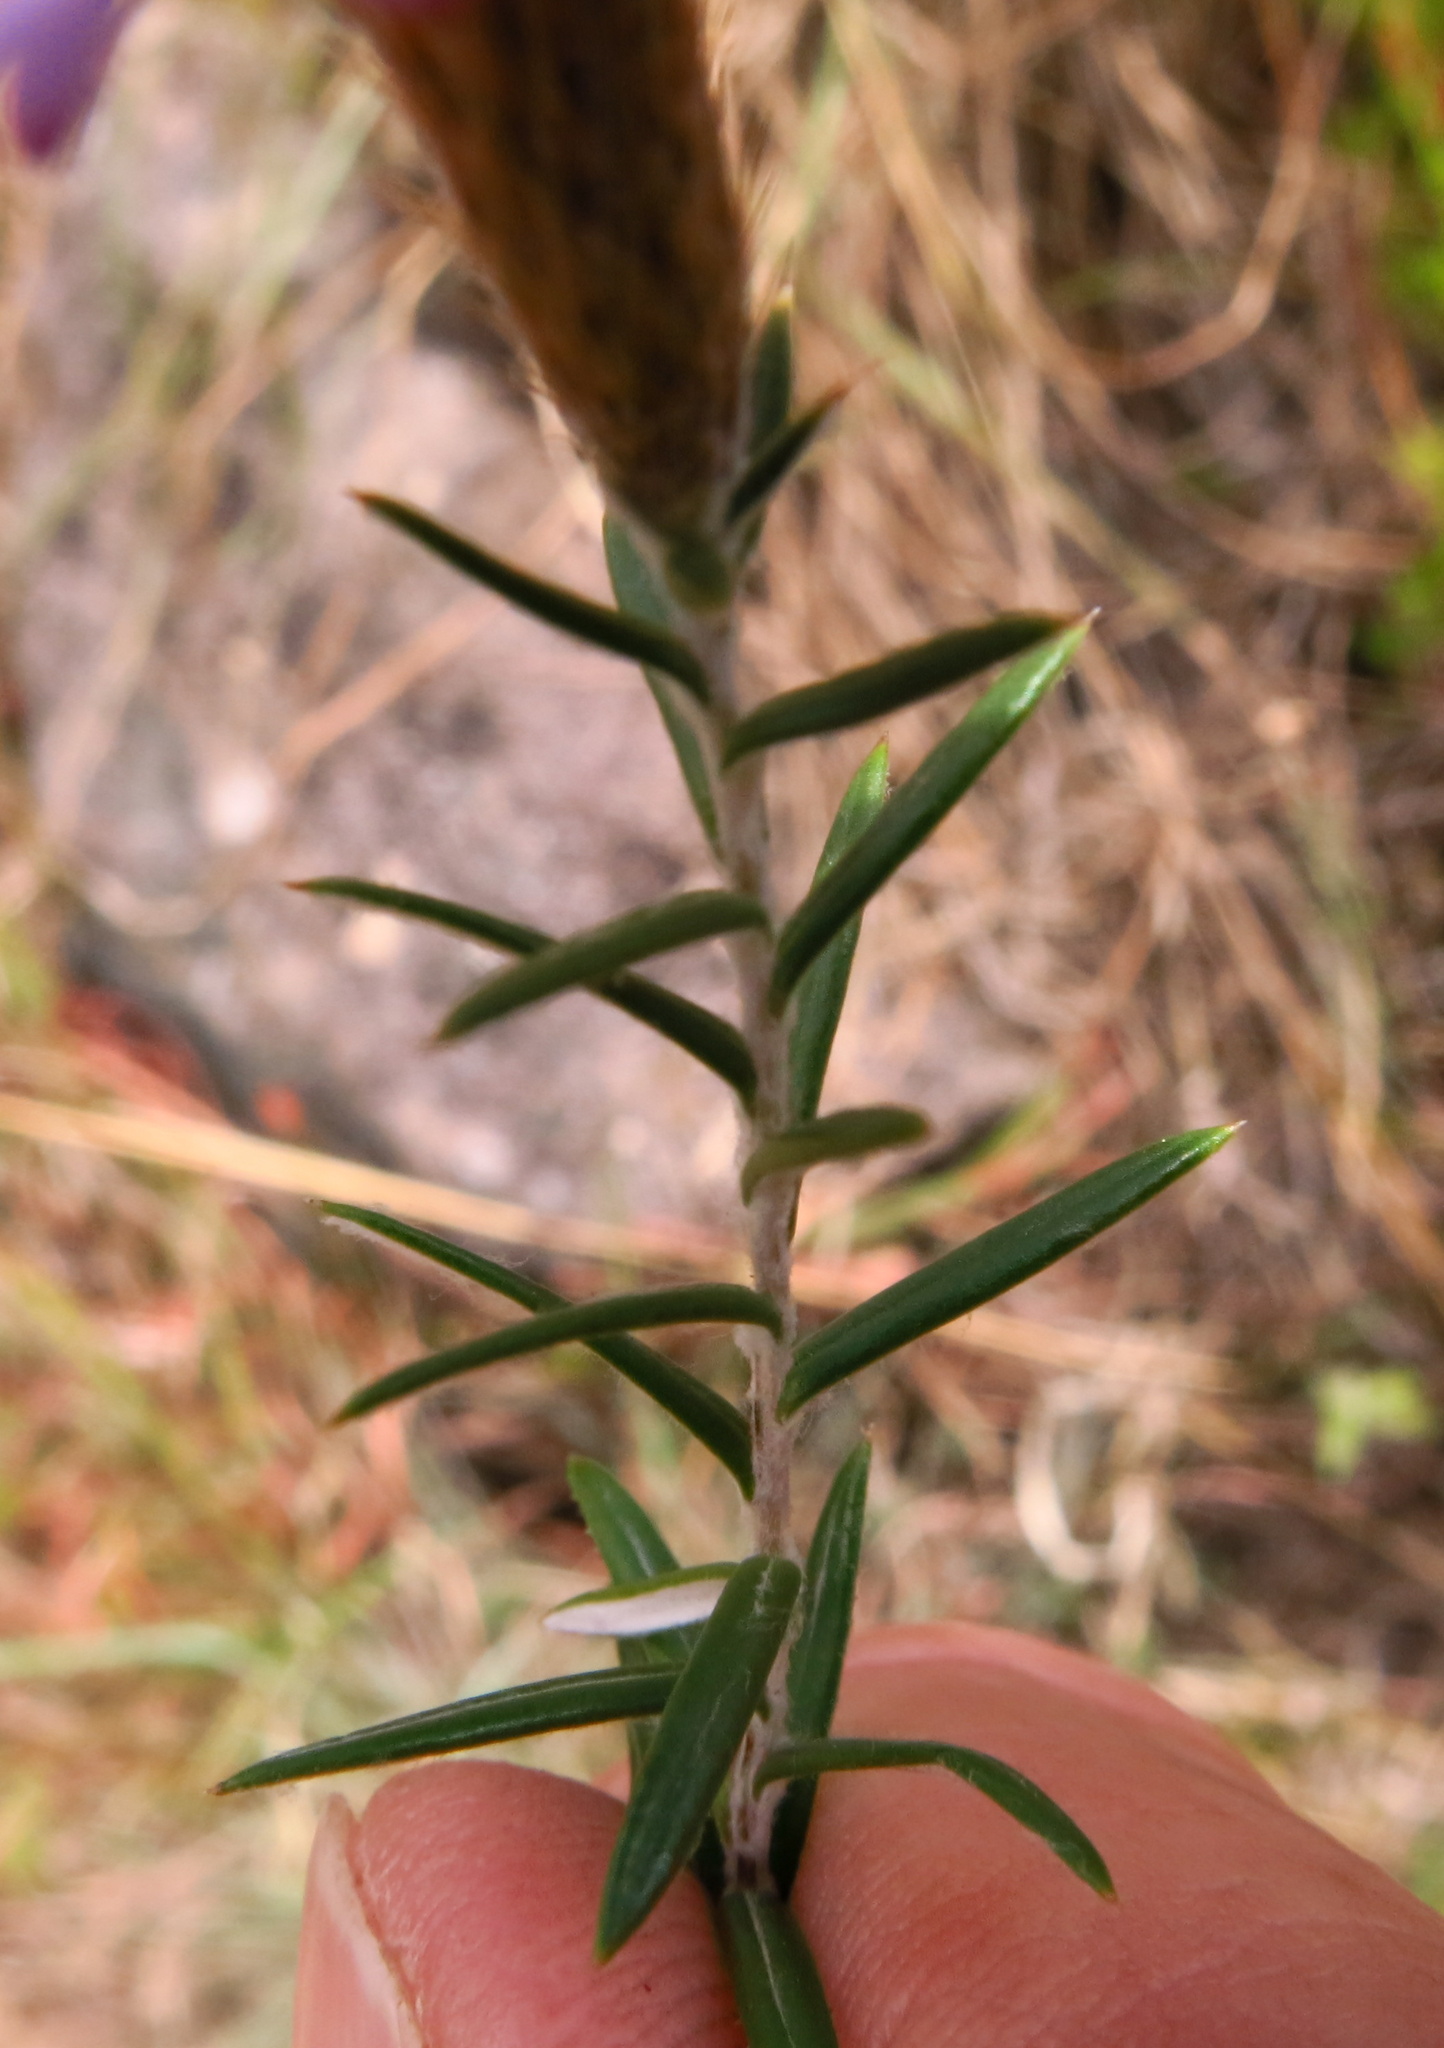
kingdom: Plantae
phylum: Tracheophyta
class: Magnoliopsida
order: Asterales
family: Asteraceae
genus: Athrixia
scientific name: Athrixia phylicoides
